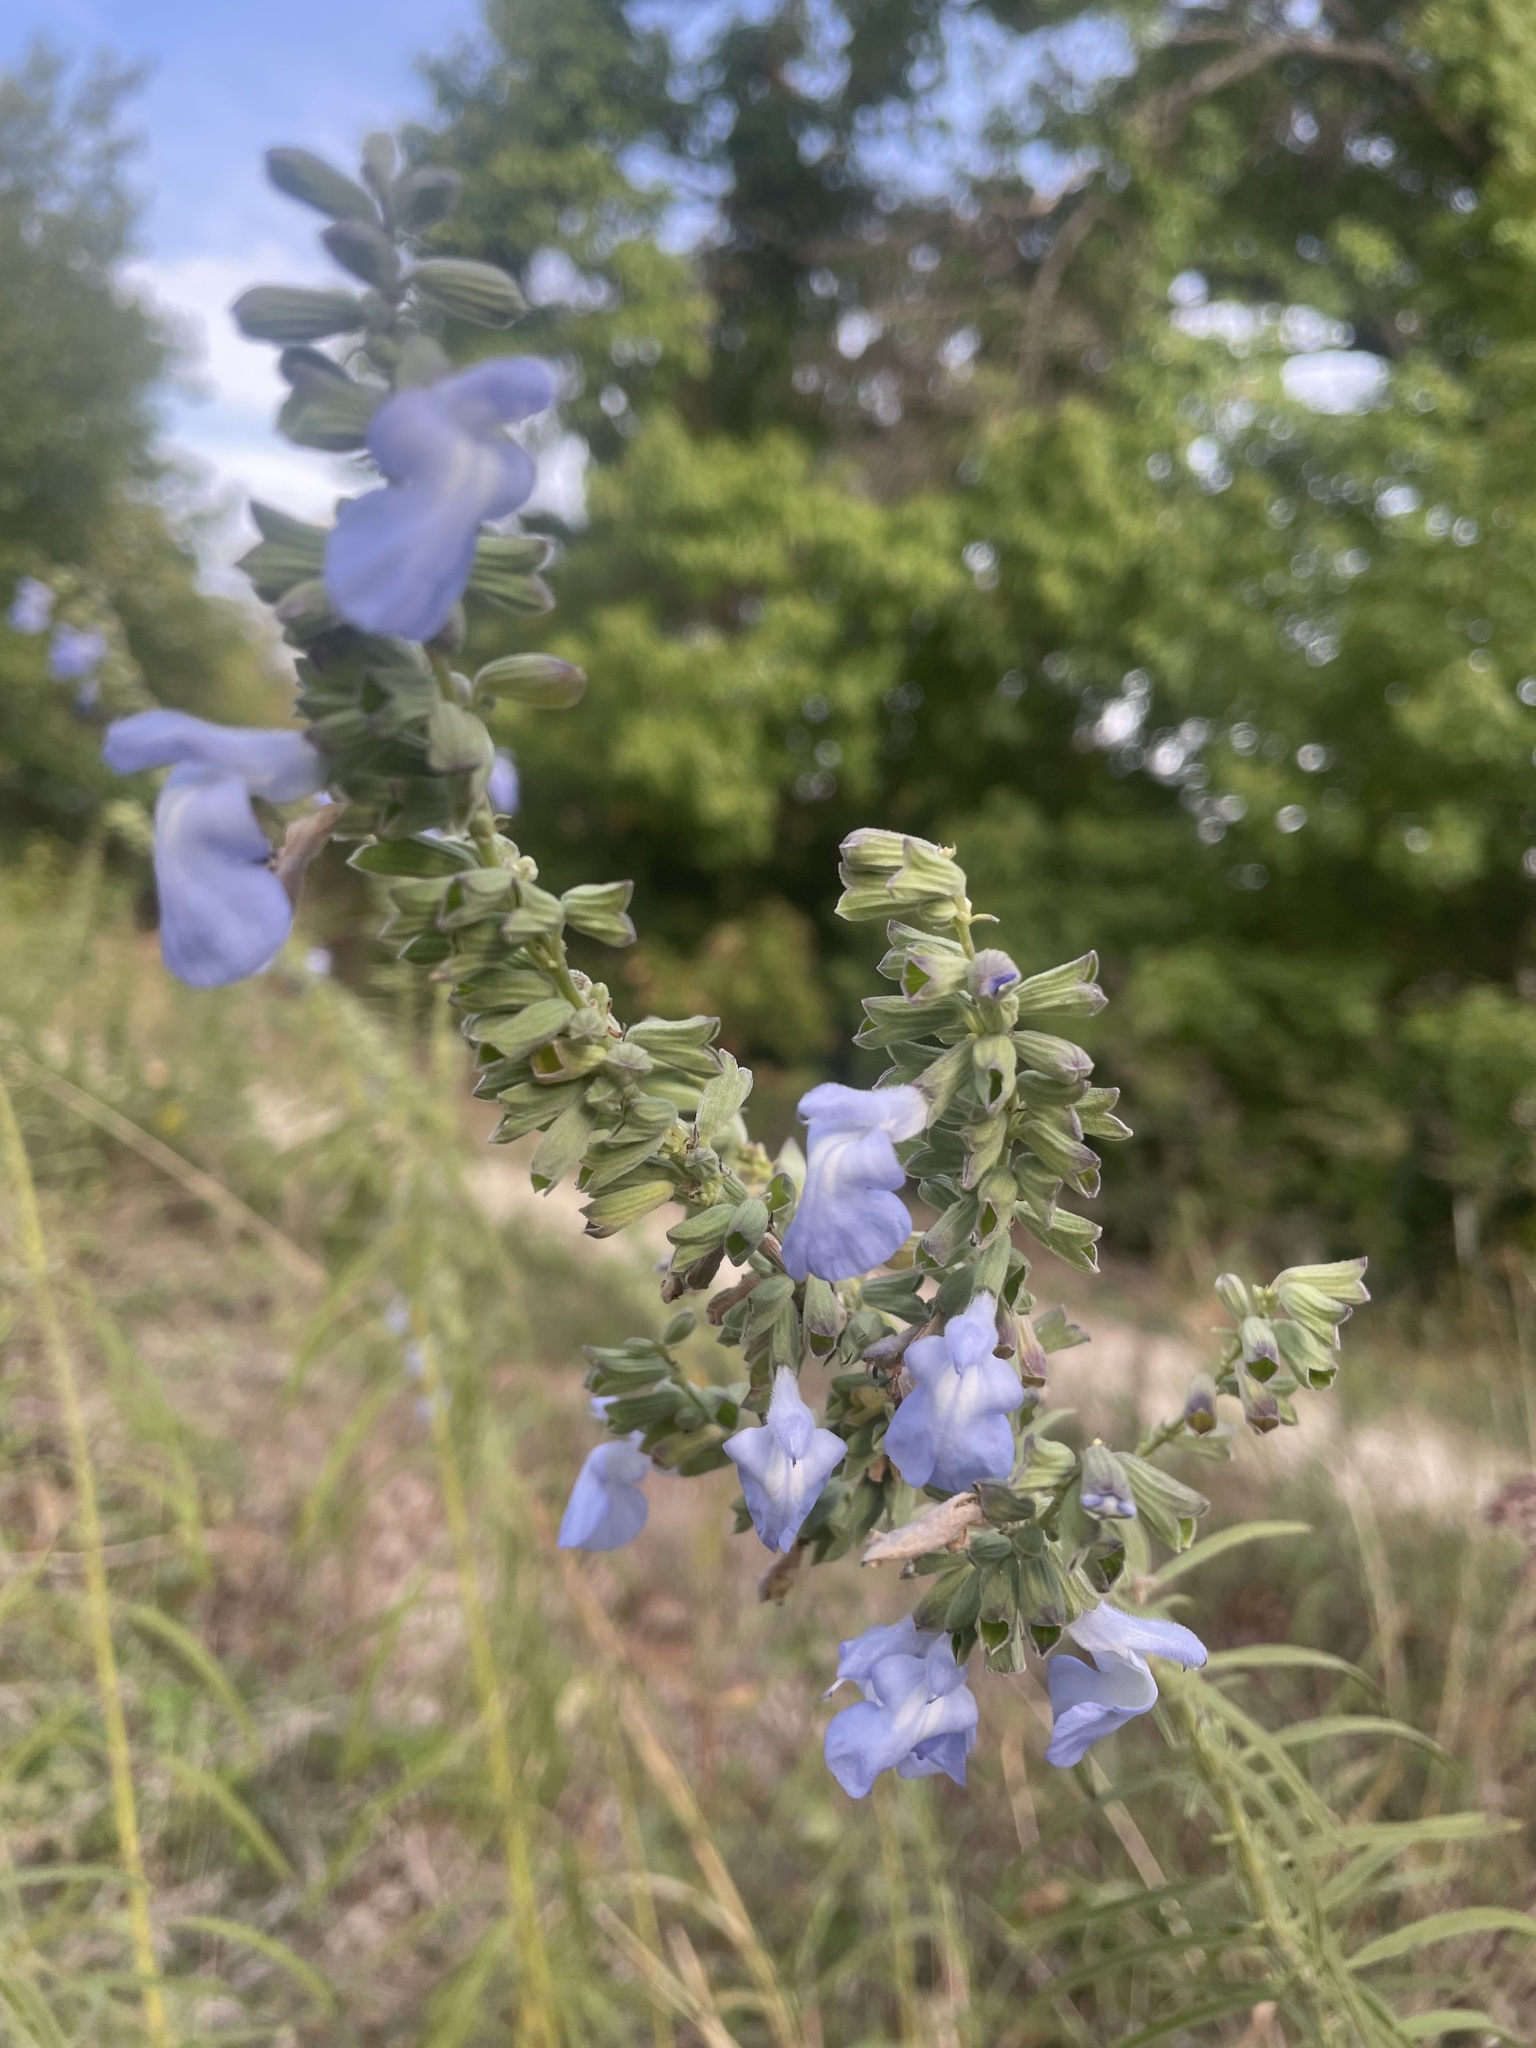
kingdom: Plantae
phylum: Tracheophyta
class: Magnoliopsida
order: Lamiales
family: Lamiaceae
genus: Salvia
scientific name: Salvia azurea
